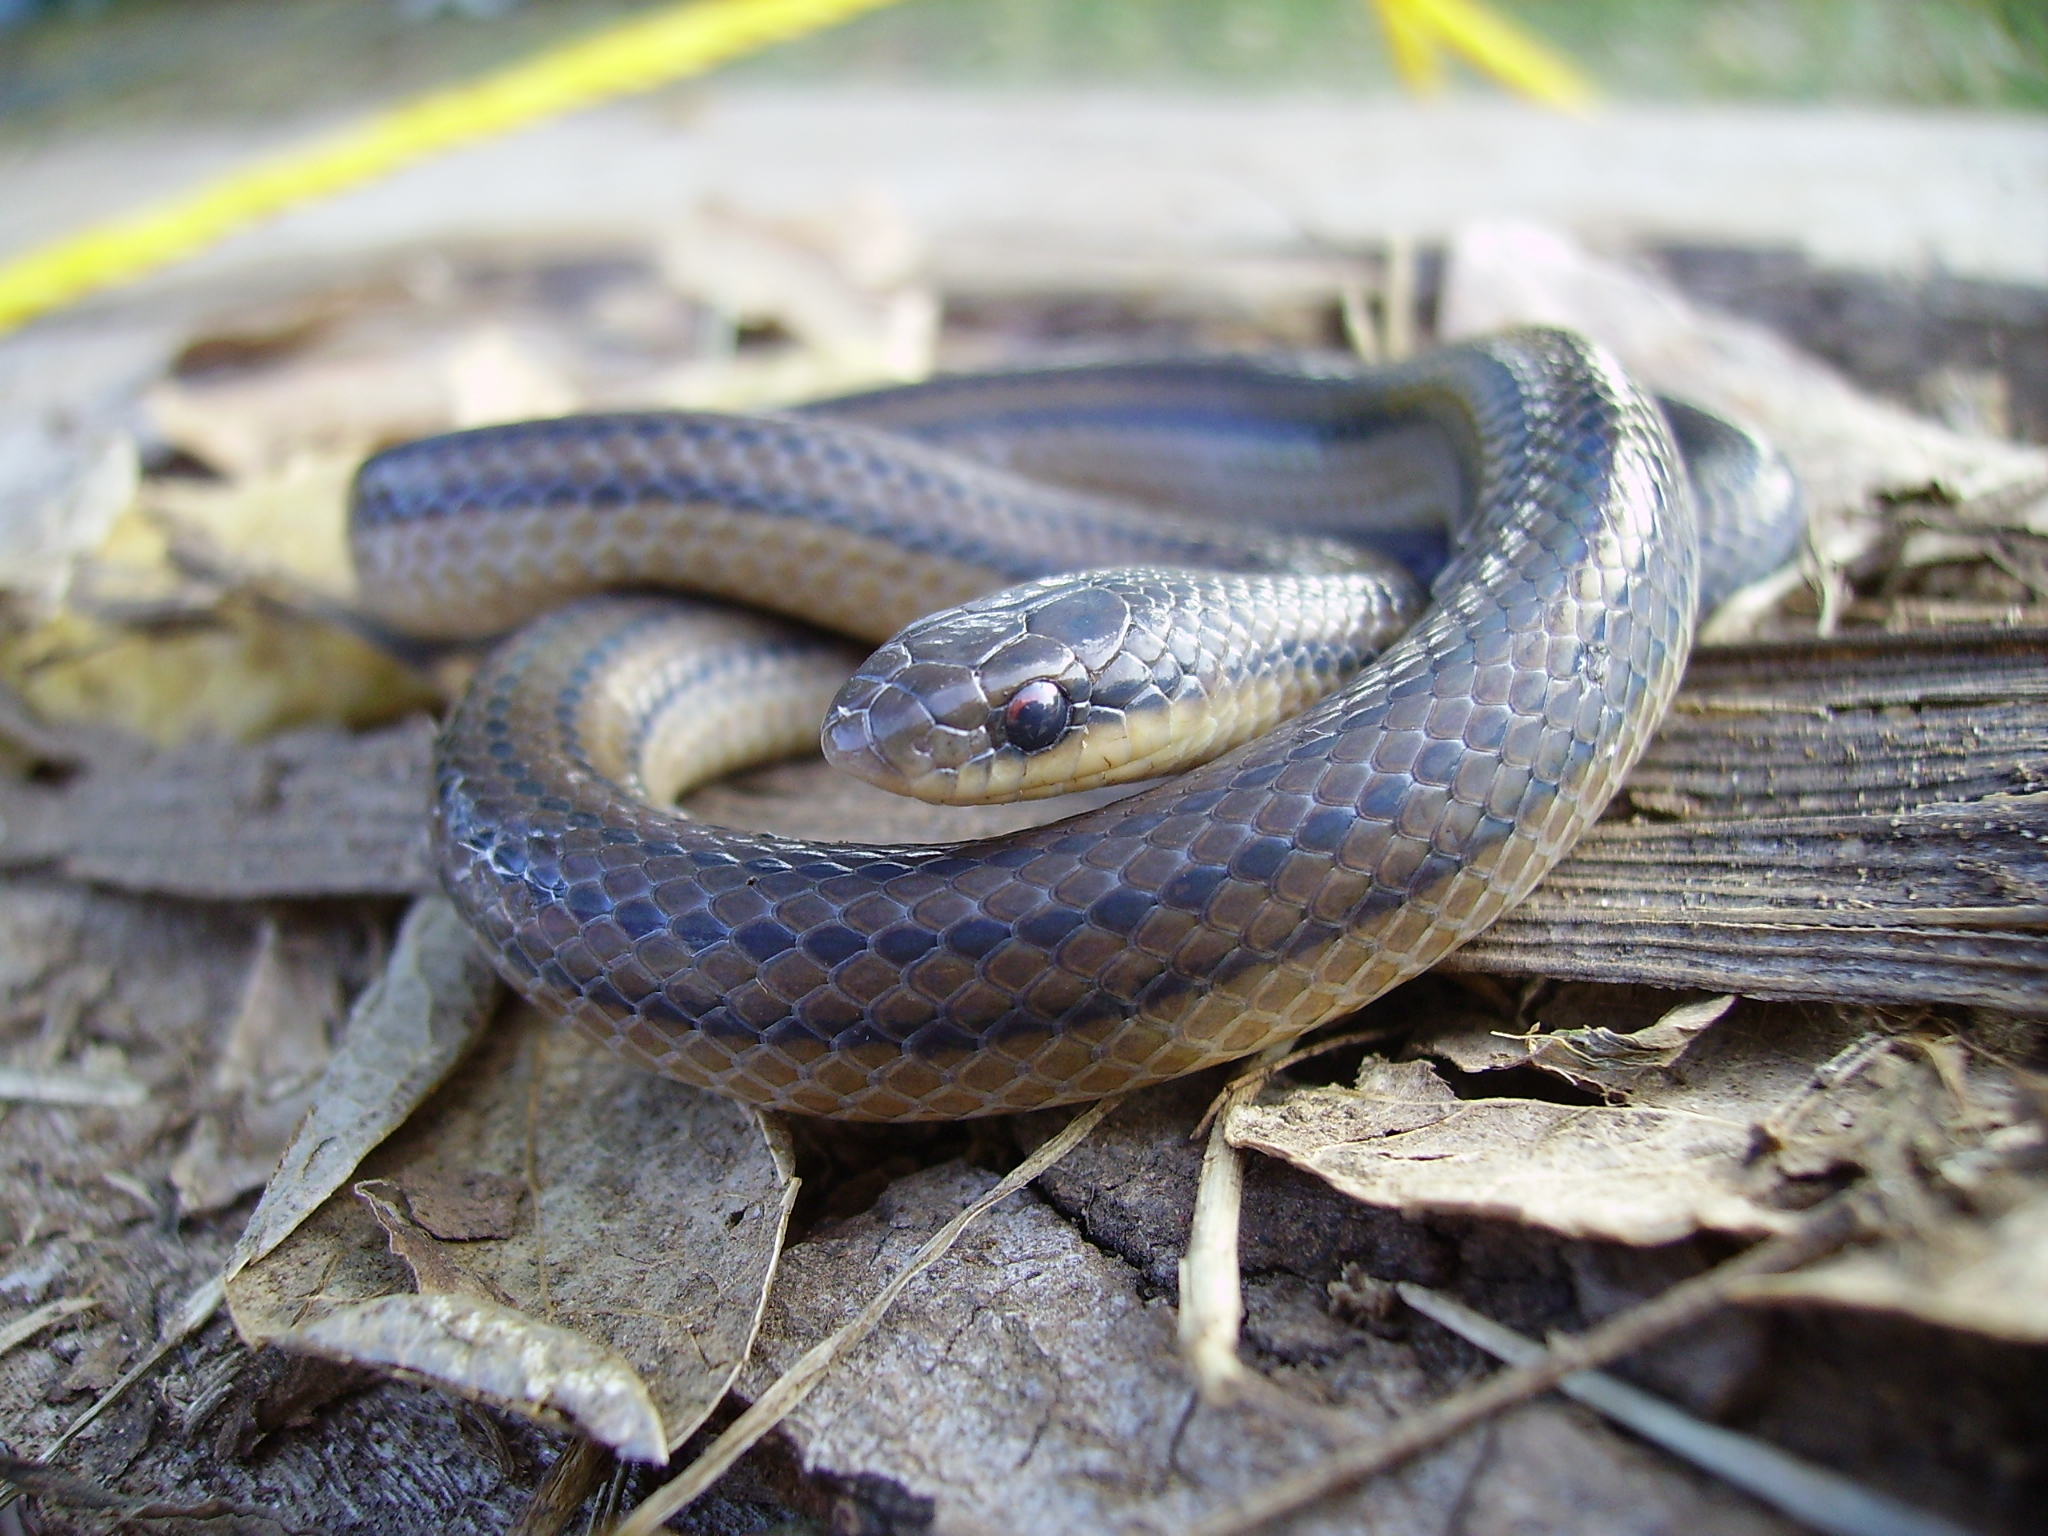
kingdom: Animalia
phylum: Chordata
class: Squamata
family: Colubridae
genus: Stenorrhina
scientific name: Stenorrhina freminvillei
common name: Blood snake
